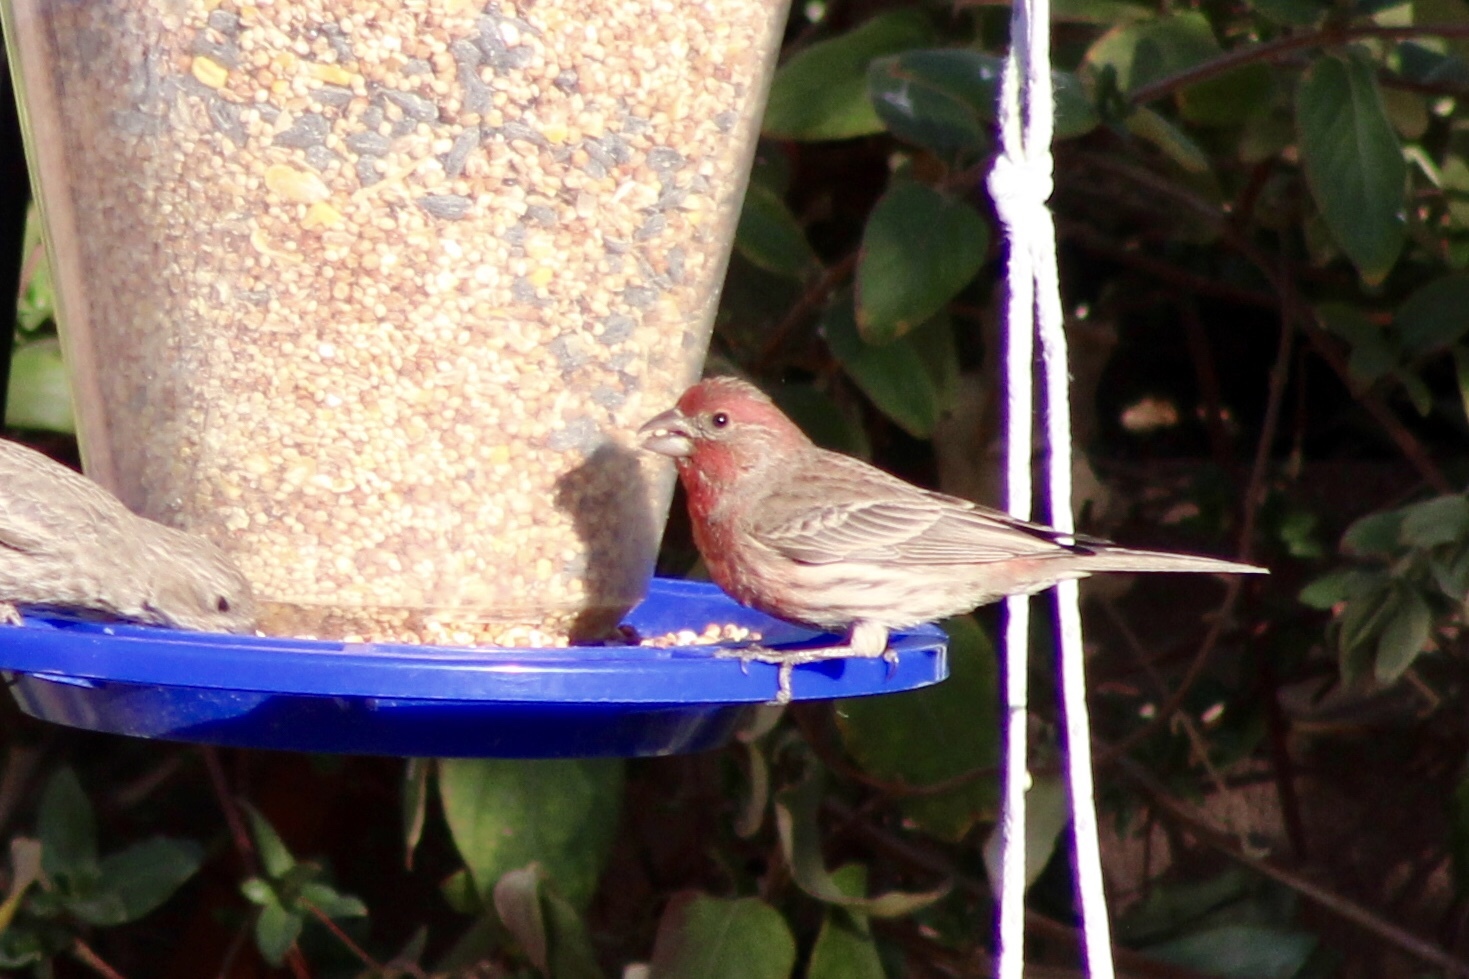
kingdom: Animalia
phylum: Chordata
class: Aves
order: Passeriformes
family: Fringillidae
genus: Haemorhous
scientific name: Haemorhous mexicanus
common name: House finch
